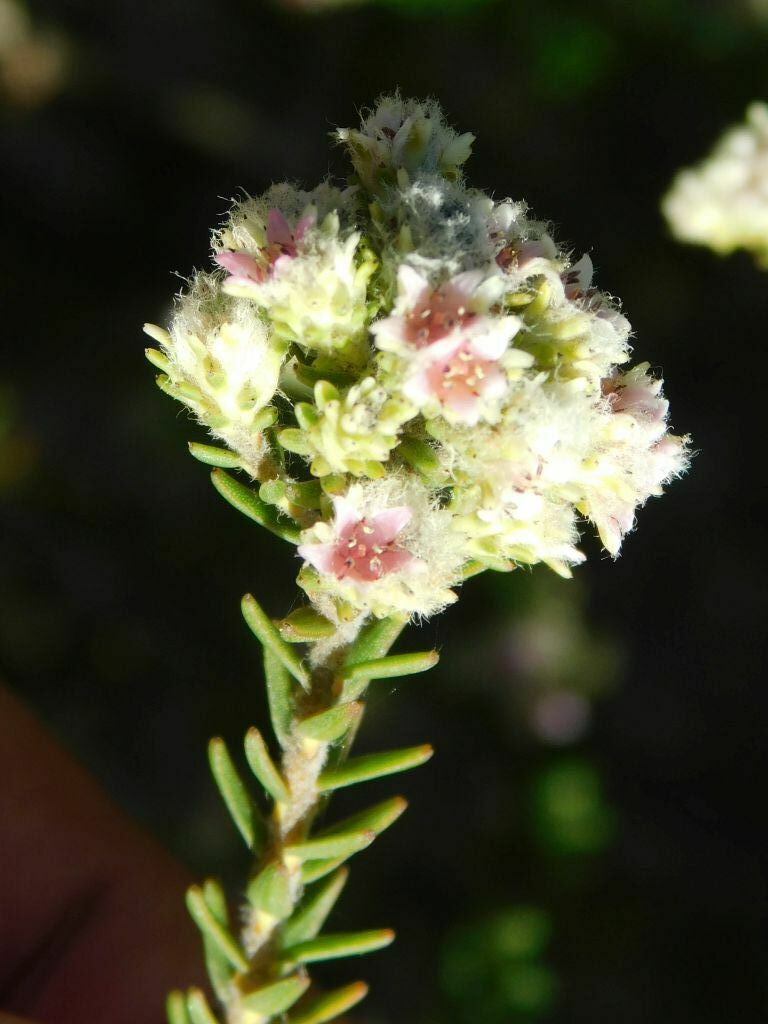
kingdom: Plantae
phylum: Tracheophyta
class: Magnoliopsida
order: Bruniales
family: Bruniaceae
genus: Staavia
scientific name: Staavia capitella
